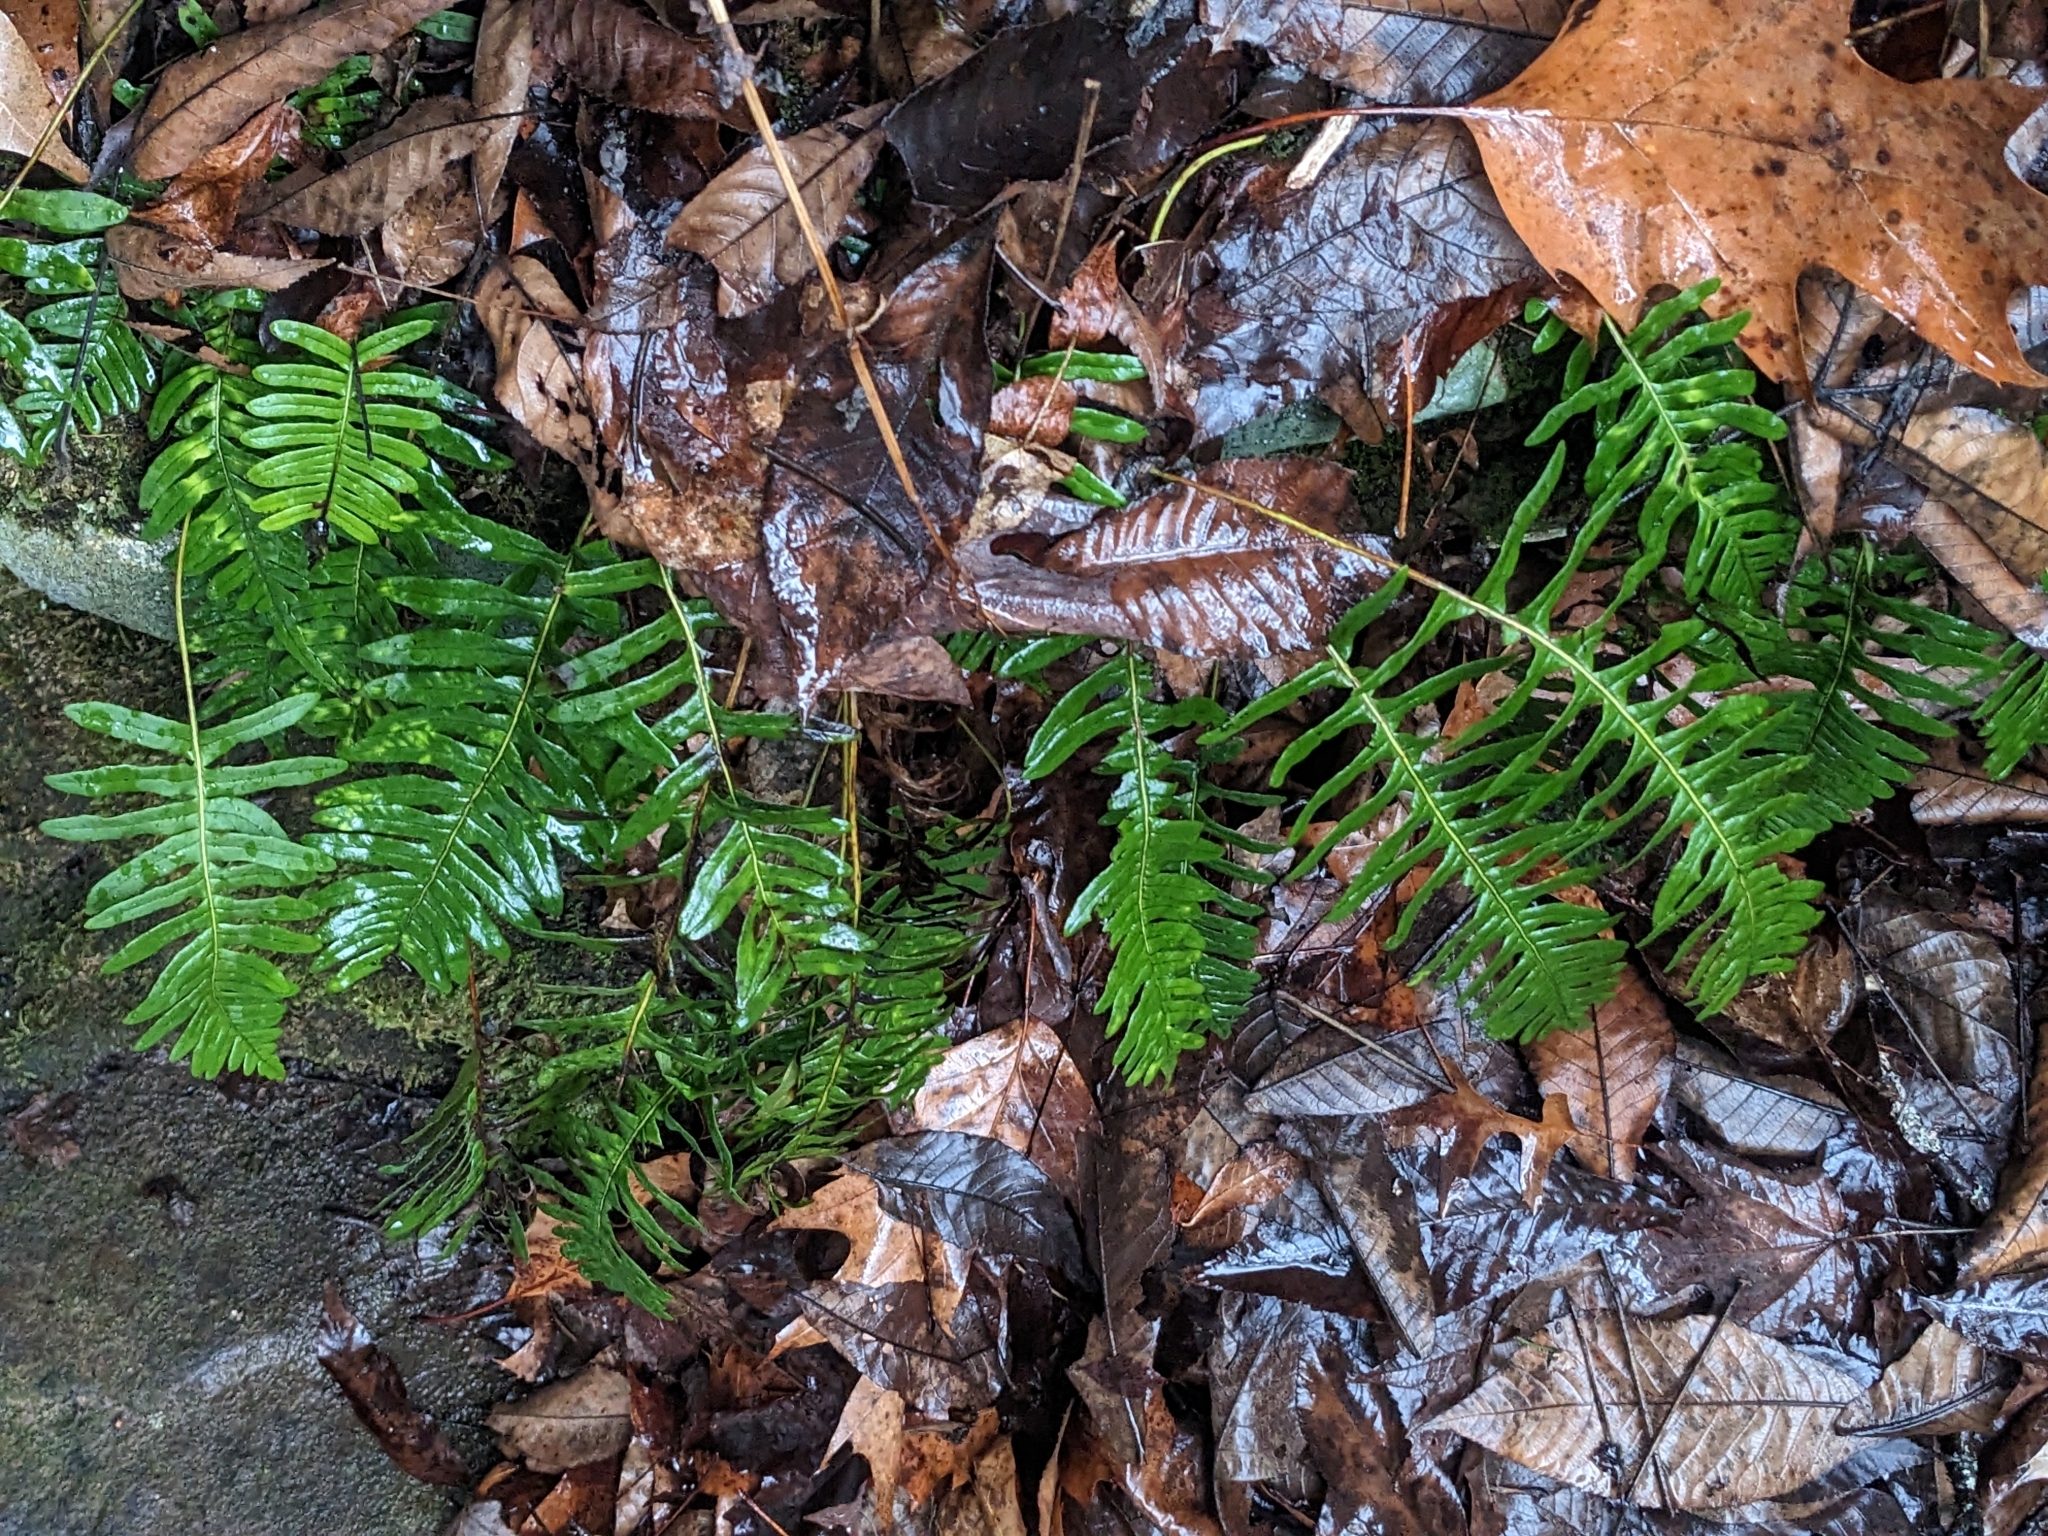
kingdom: Plantae
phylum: Tracheophyta
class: Polypodiopsida
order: Polypodiales
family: Polypodiaceae
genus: Polypodium
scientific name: Polypodium appalachianum
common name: Appalachian polypody
